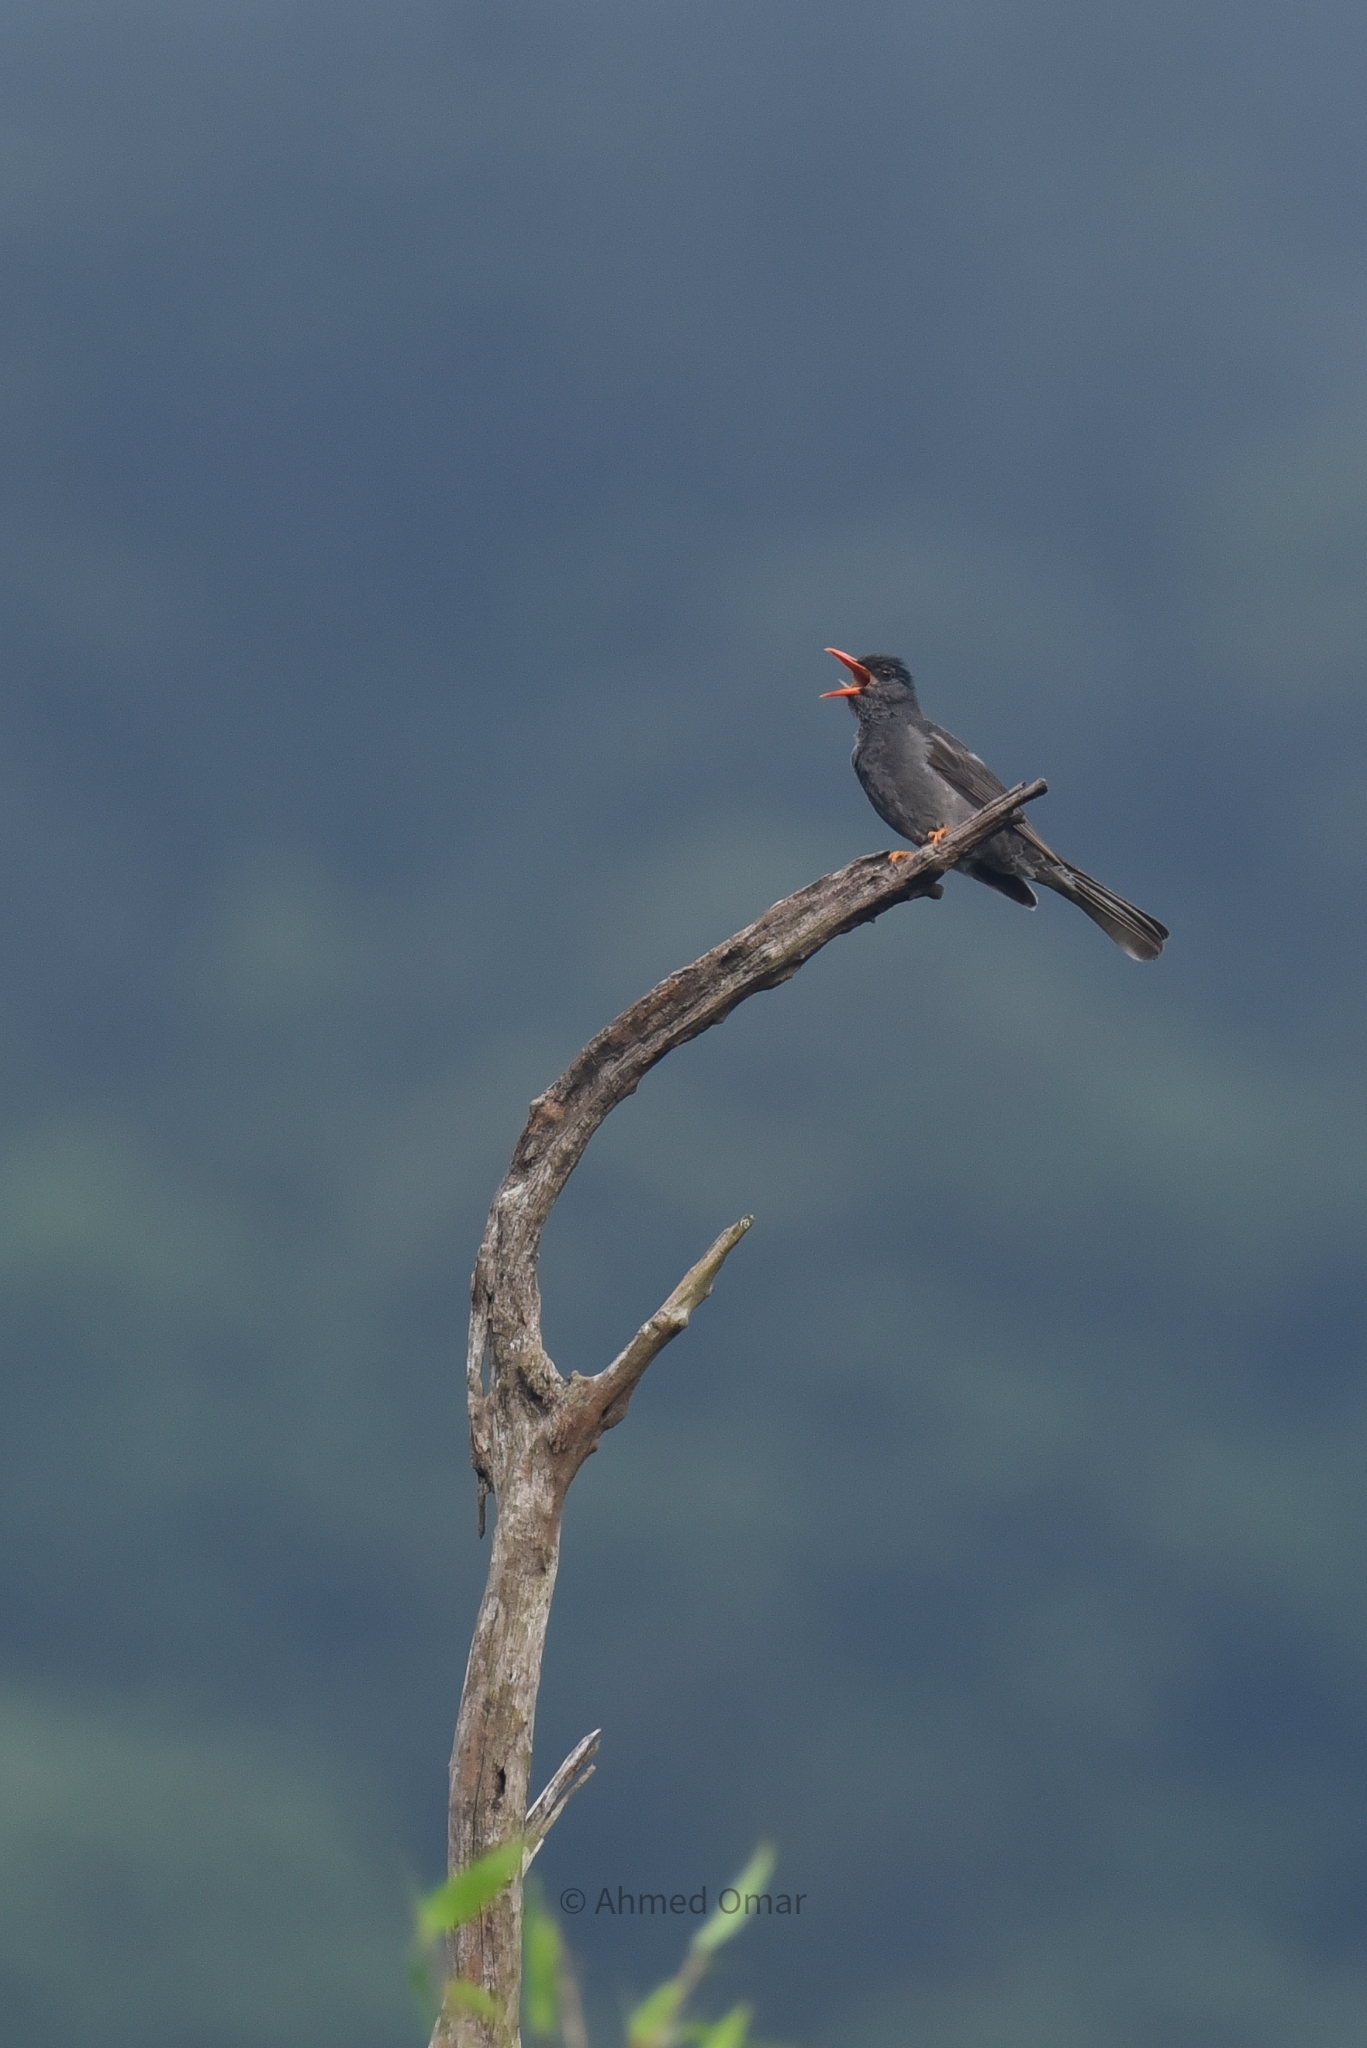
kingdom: Animalia
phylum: Chordata
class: Aves
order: Passeriformes
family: Pycnonotidae
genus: Hypsipetes
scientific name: Hypsipetes ganeesa
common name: Square-tailed bulbul
